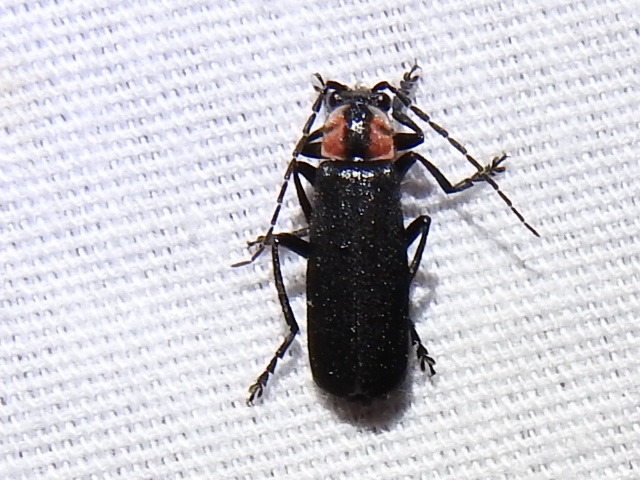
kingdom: Animalia
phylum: Arthropoda
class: Insecta
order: Coleoptera
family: Cantharidae
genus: Discodon
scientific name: Discodon bipunctatum
